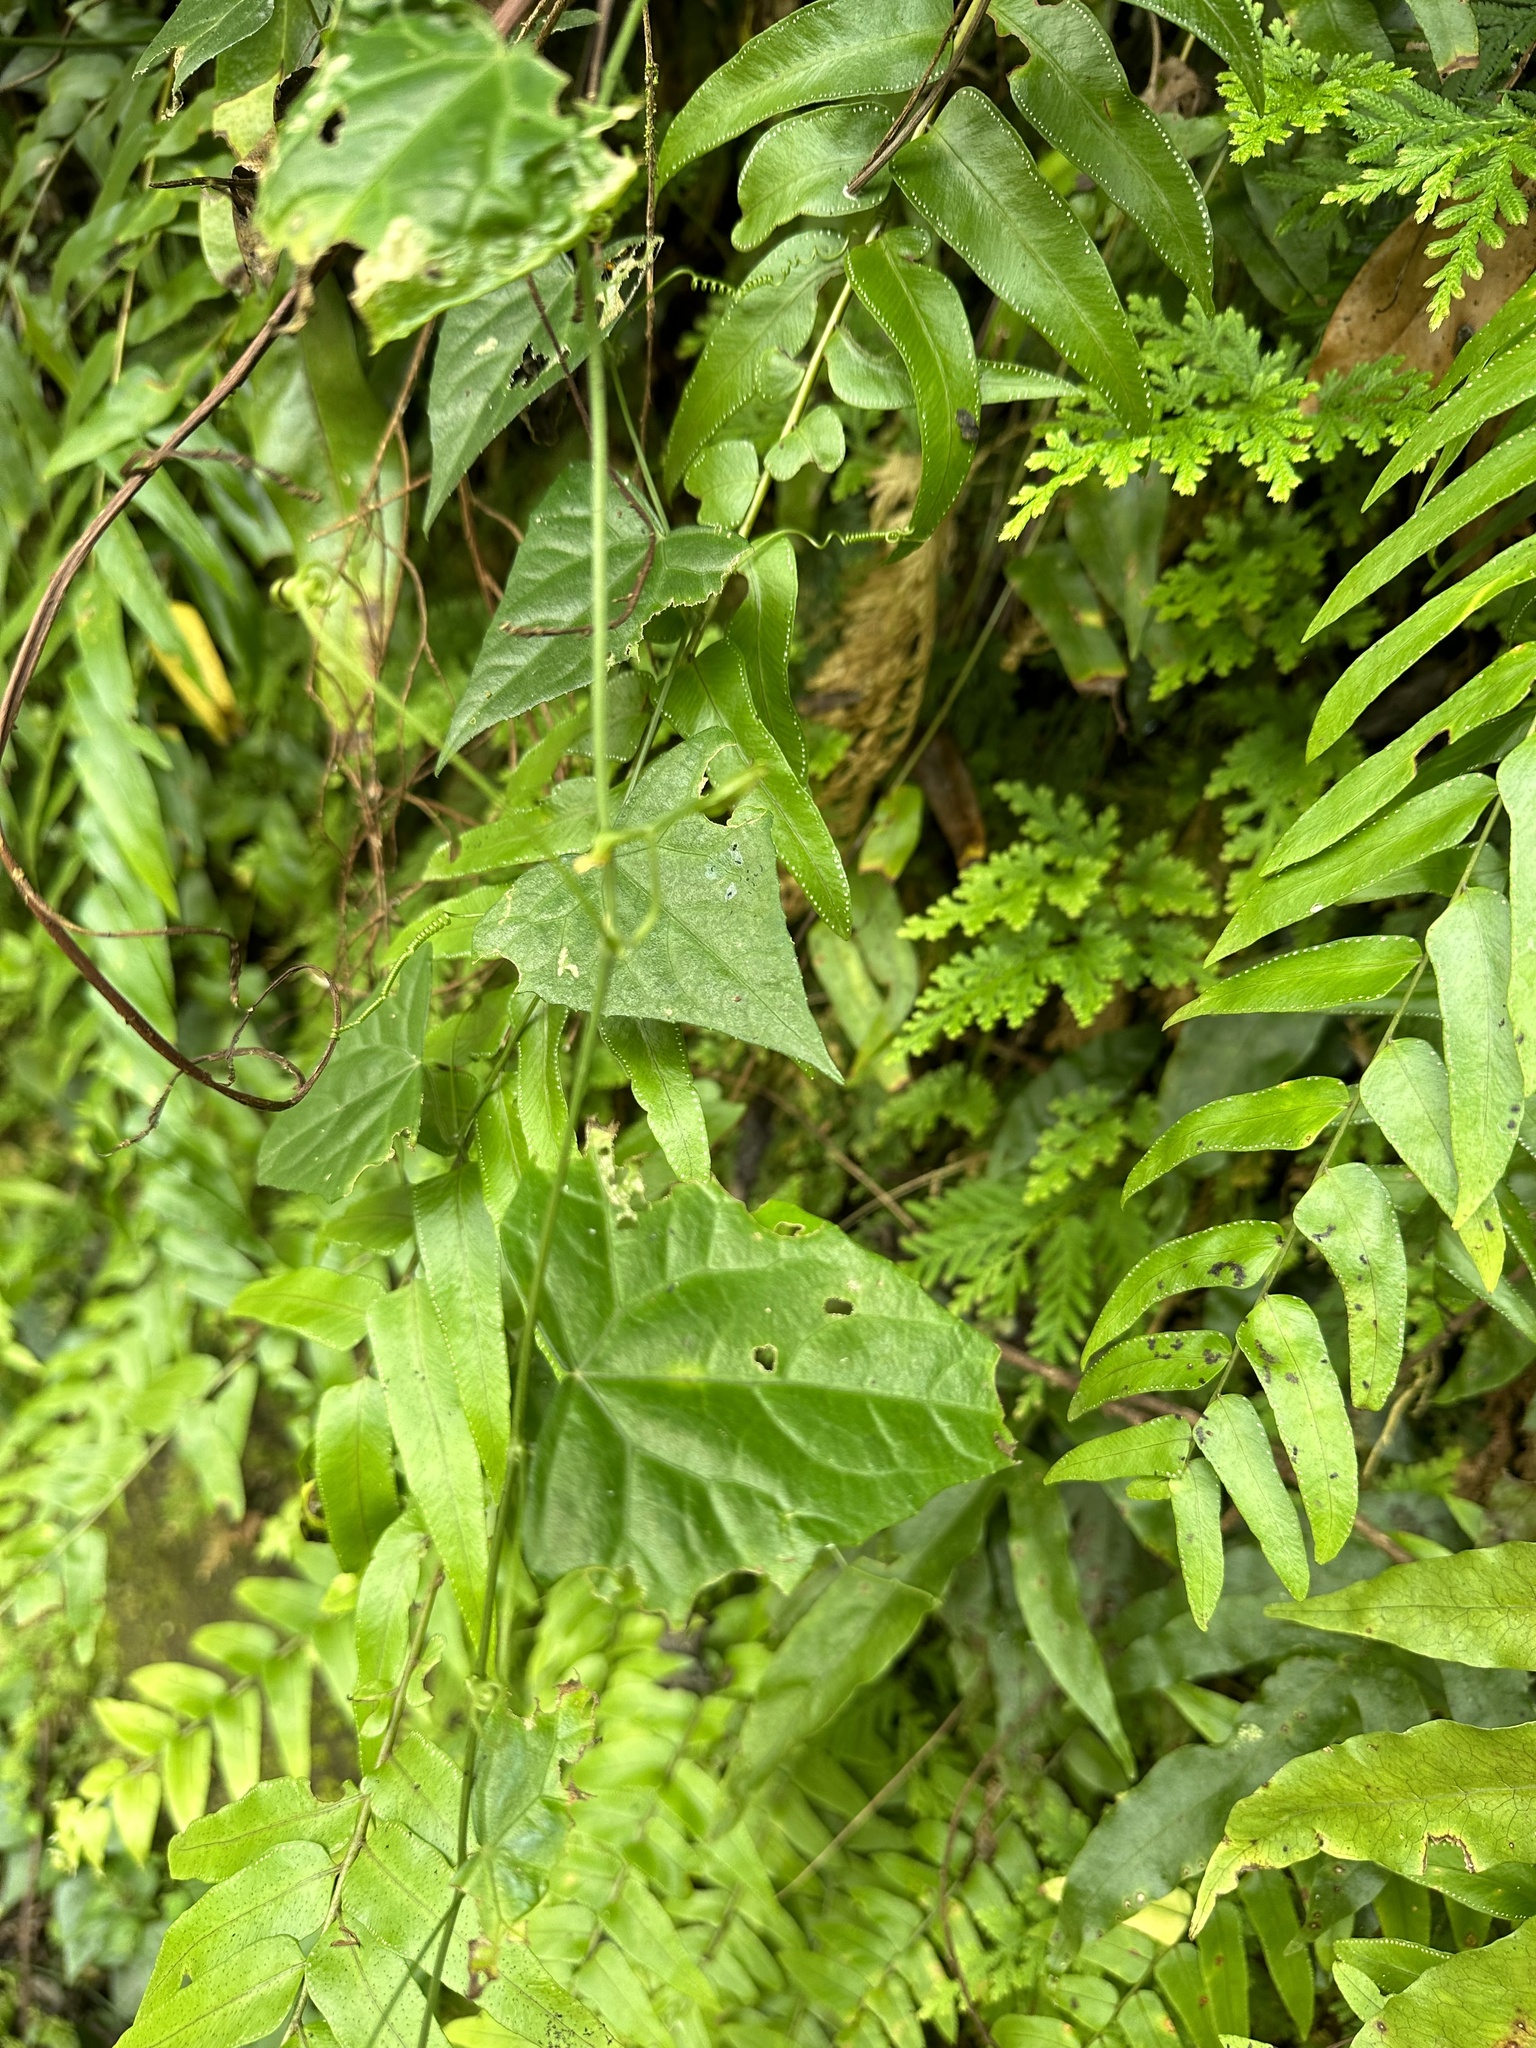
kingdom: Plantae
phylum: Tracheophyta
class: Magnoliopsida
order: Cucurbitales
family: Cucurbitaceae
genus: Zehneria
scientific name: Zehneria guamensis
